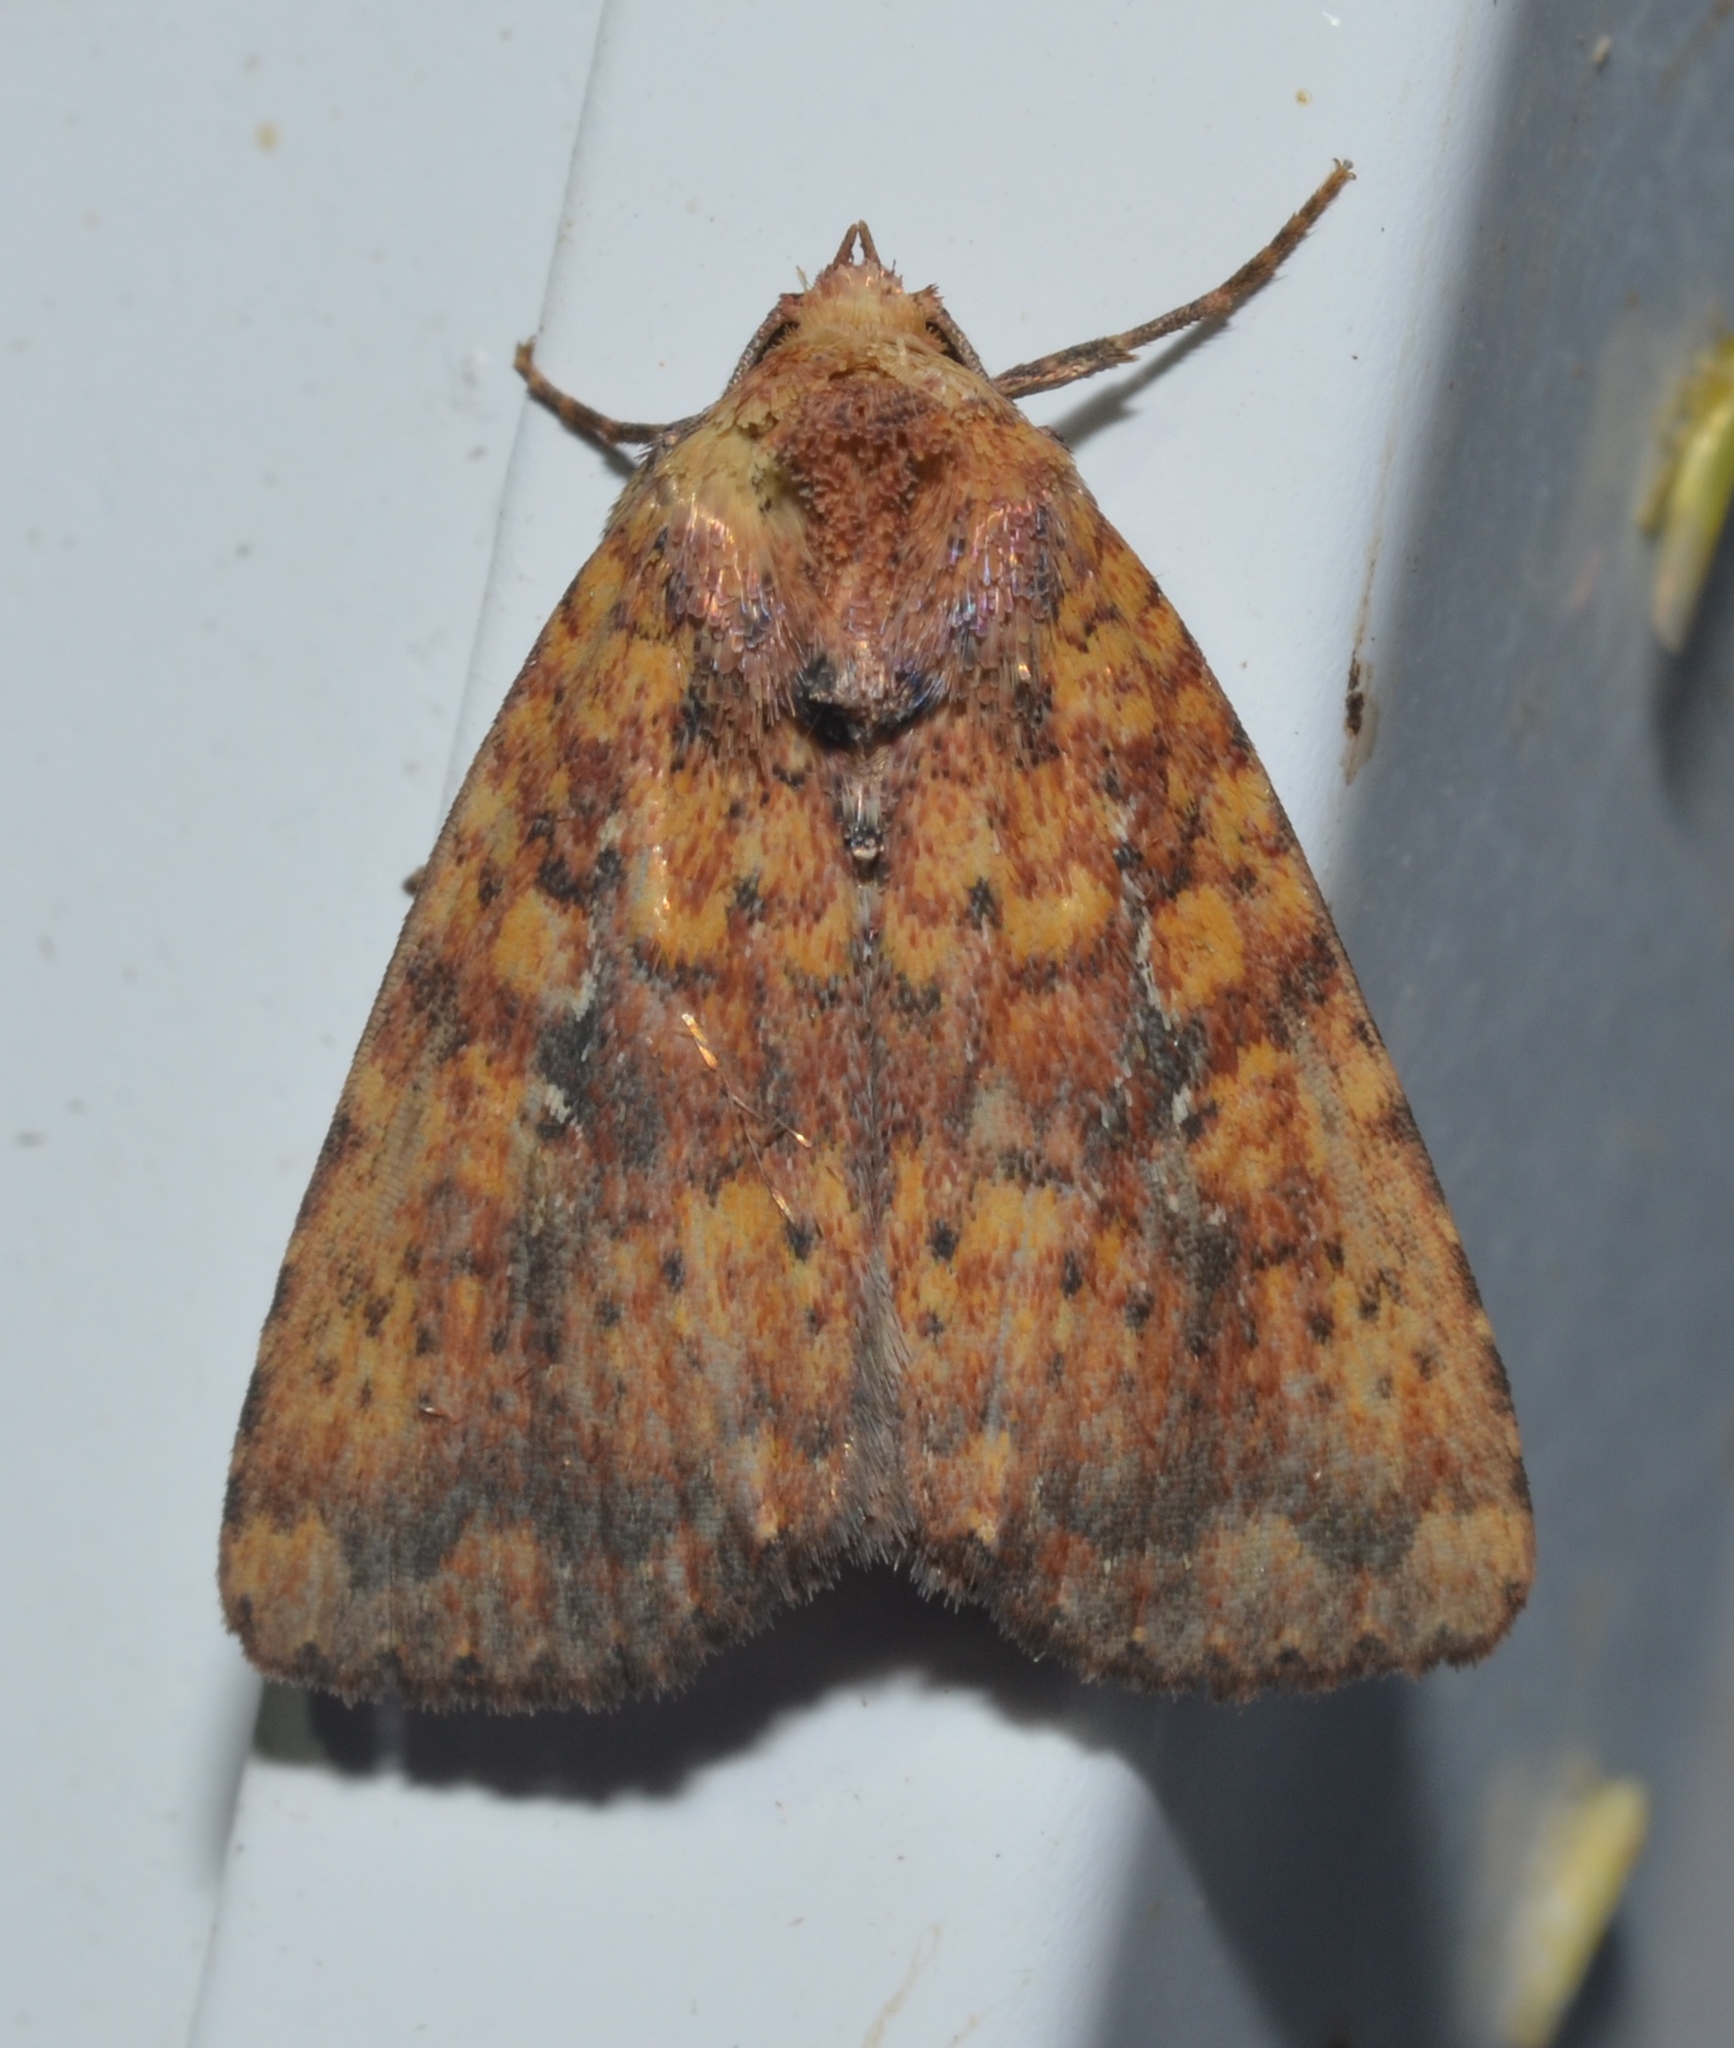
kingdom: Animalia
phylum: Arthropoda
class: Insecta
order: Lepidoptera
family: Noctuidae
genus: Perigea
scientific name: Perigea xanthioides
